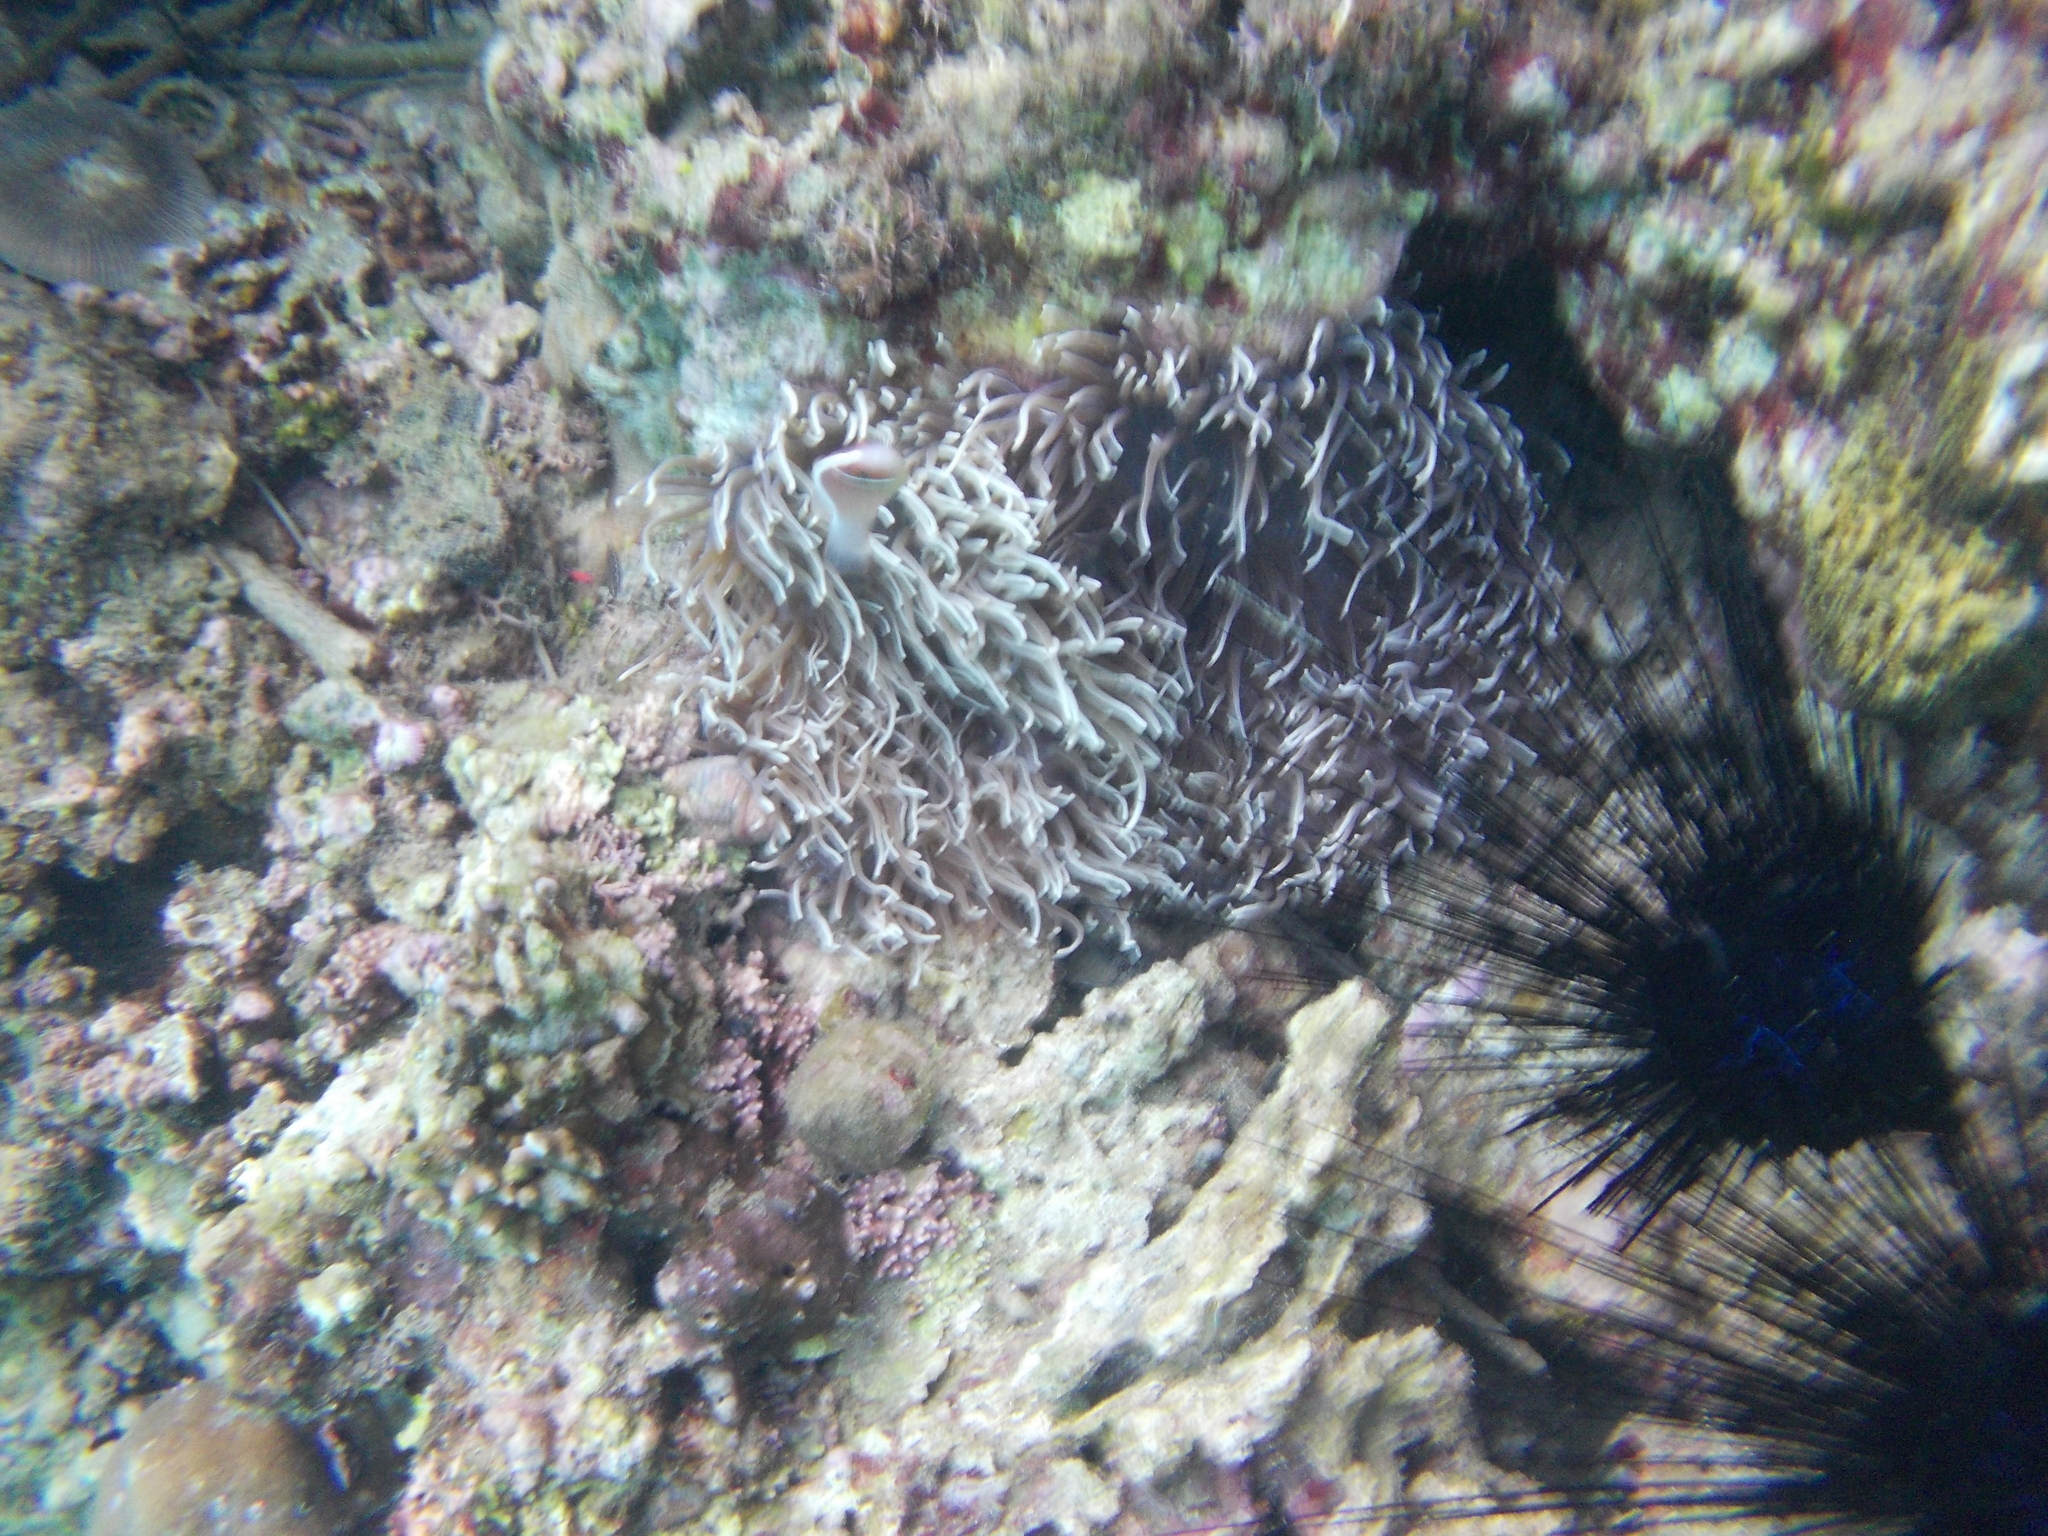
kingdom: Animalia
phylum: Chordata
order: Perciformes
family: Pomacentridae
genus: Amphiprion
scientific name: Amphiprion perideraion
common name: Pink anemonefish
